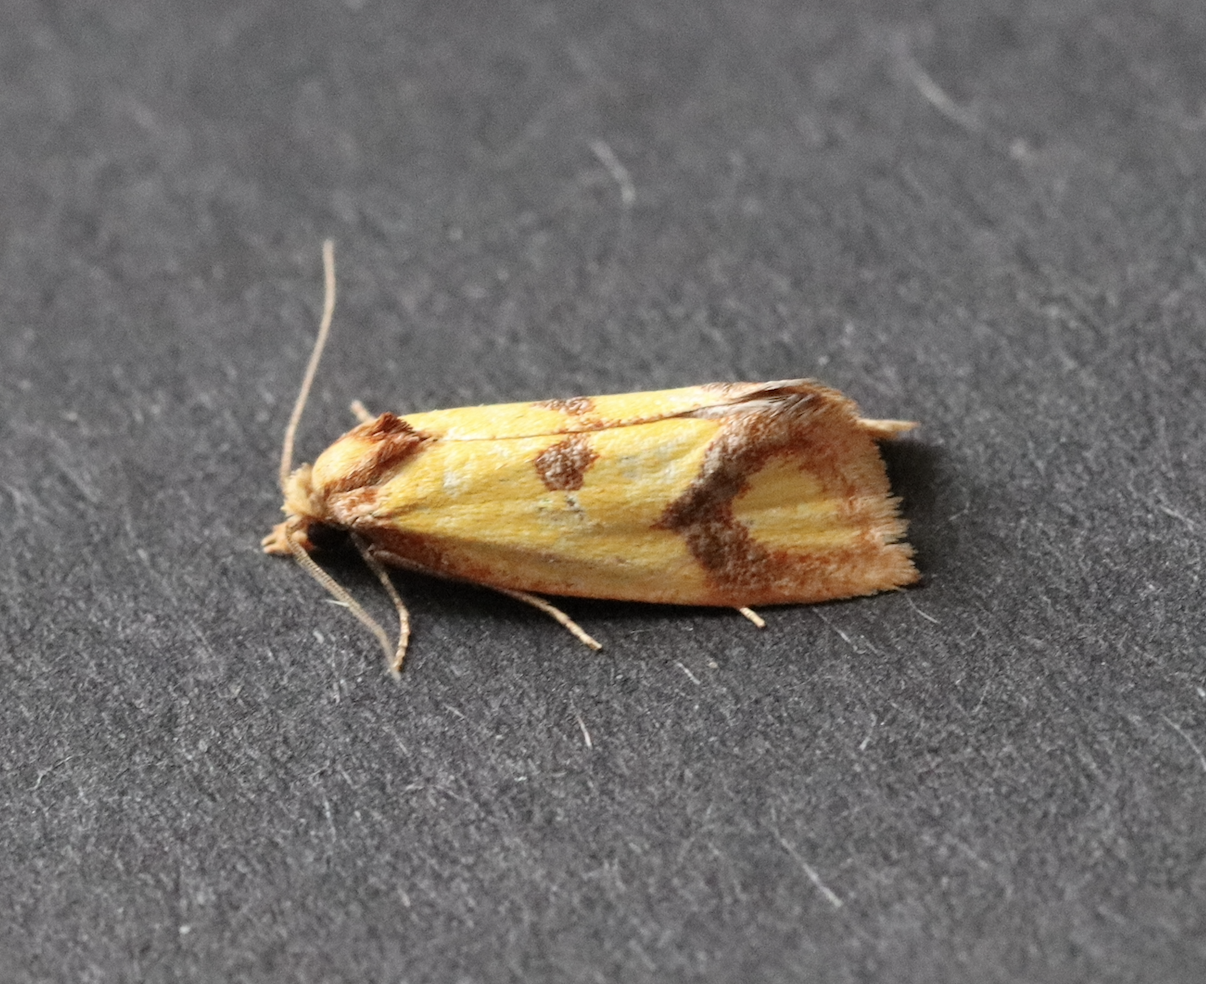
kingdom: Animalia
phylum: Arthropoda
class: Insecta
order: Lepidoptera
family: Tortricidae
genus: Agapeta
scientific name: Agapeta zoegana
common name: Sulfur knapweed root moth
